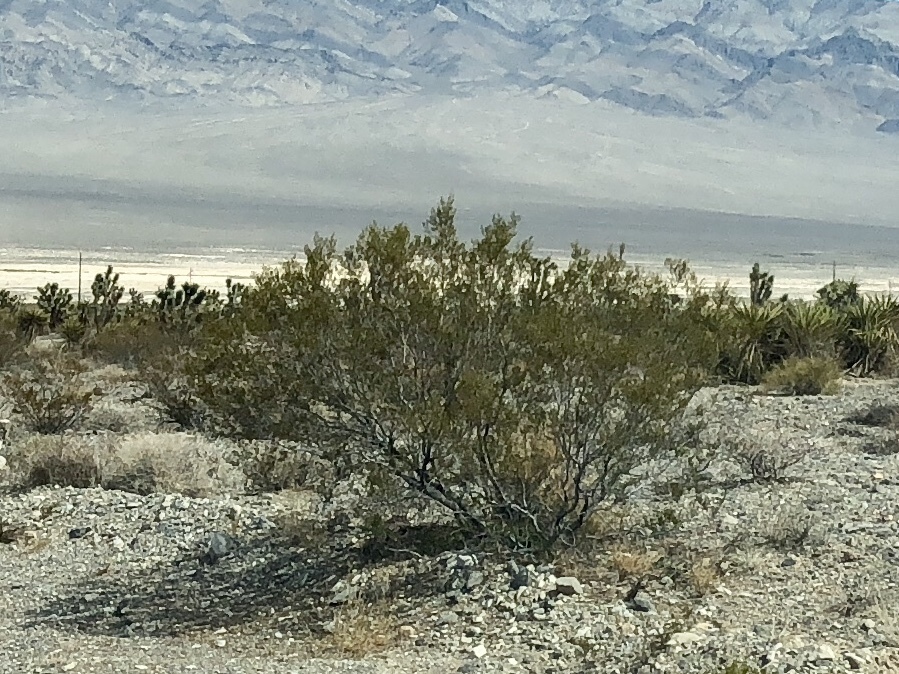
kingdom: Plantae
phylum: Tracheophyta
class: Magnoliopsida
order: Zygophyllales
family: Zygophyllaceae
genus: Larrea
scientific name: Larrea tridentata
